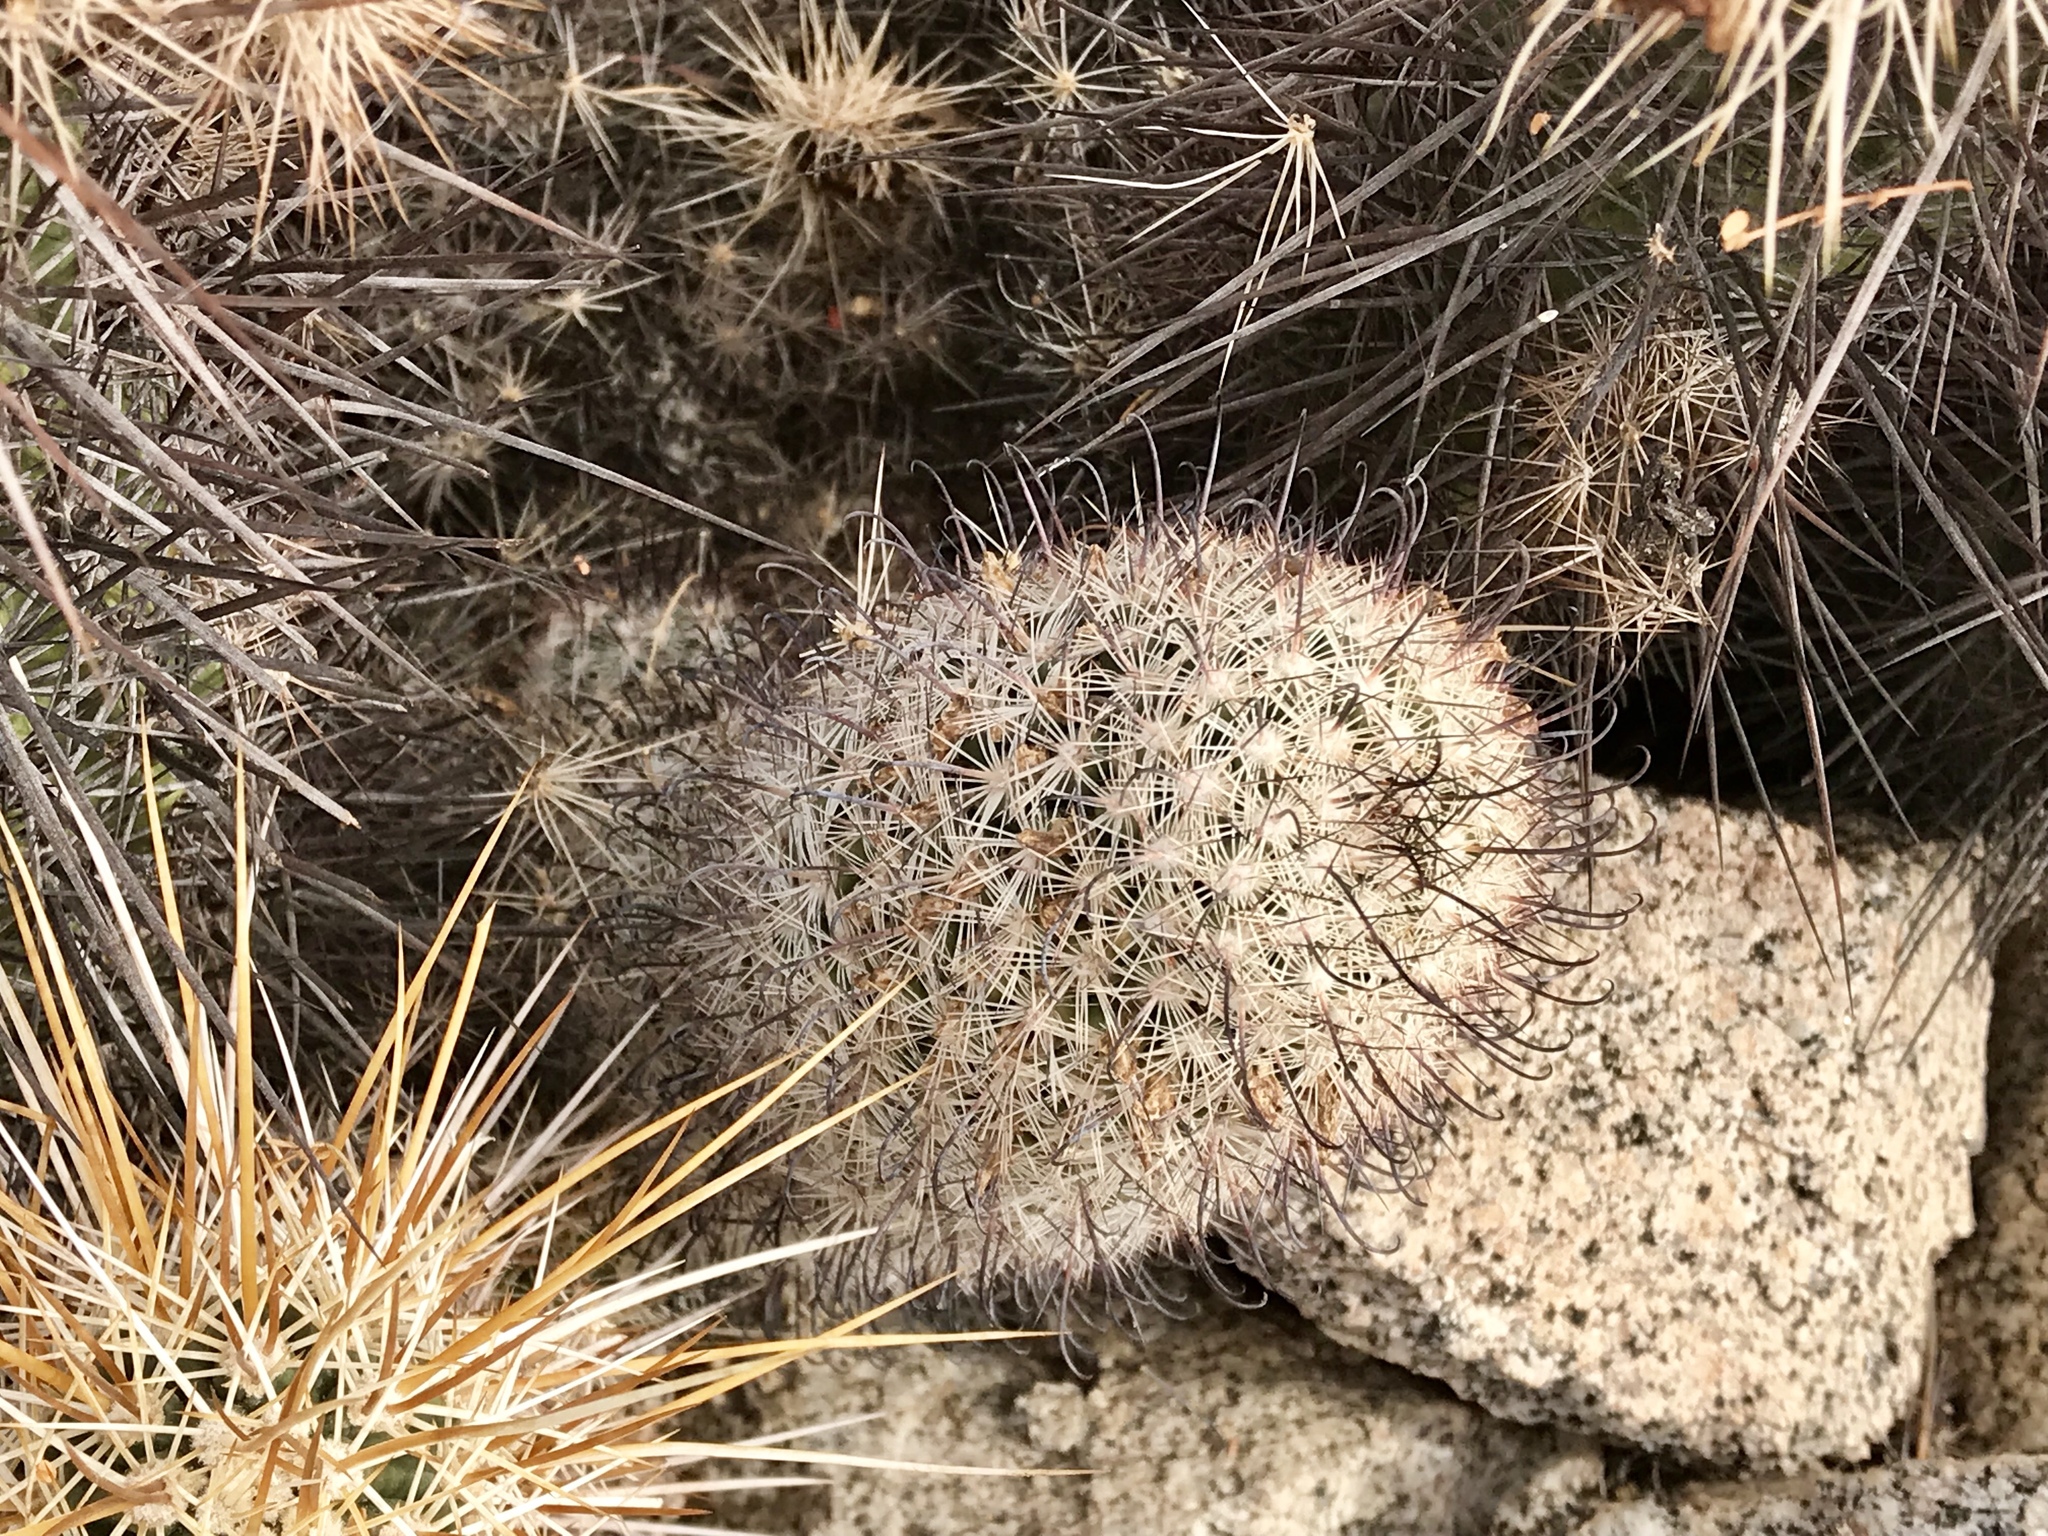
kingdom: Plantae
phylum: Tracheophyta
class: Magnoliopsida
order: Caryophyllales
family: Cactaceae
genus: Cochemiea
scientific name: Cochemiea grahamii
